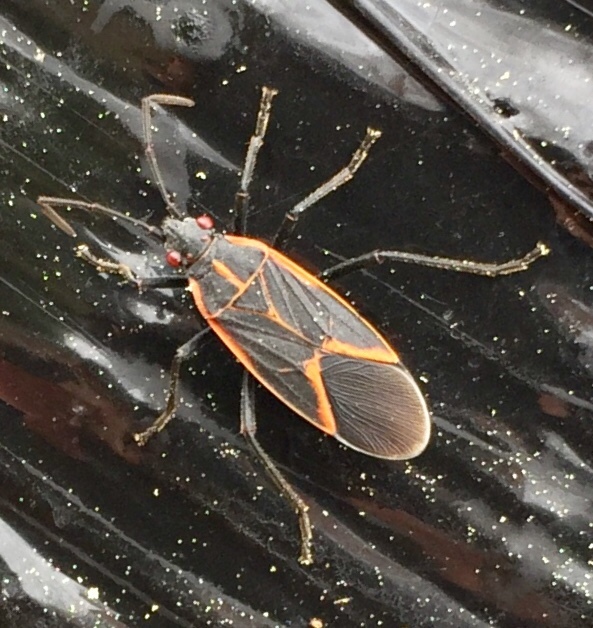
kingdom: Animalia
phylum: Arthropoda
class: Insecta
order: Hemiptera
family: Rhopalidae
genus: Boisea
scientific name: Boisea trivittata
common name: Boxelder bug
